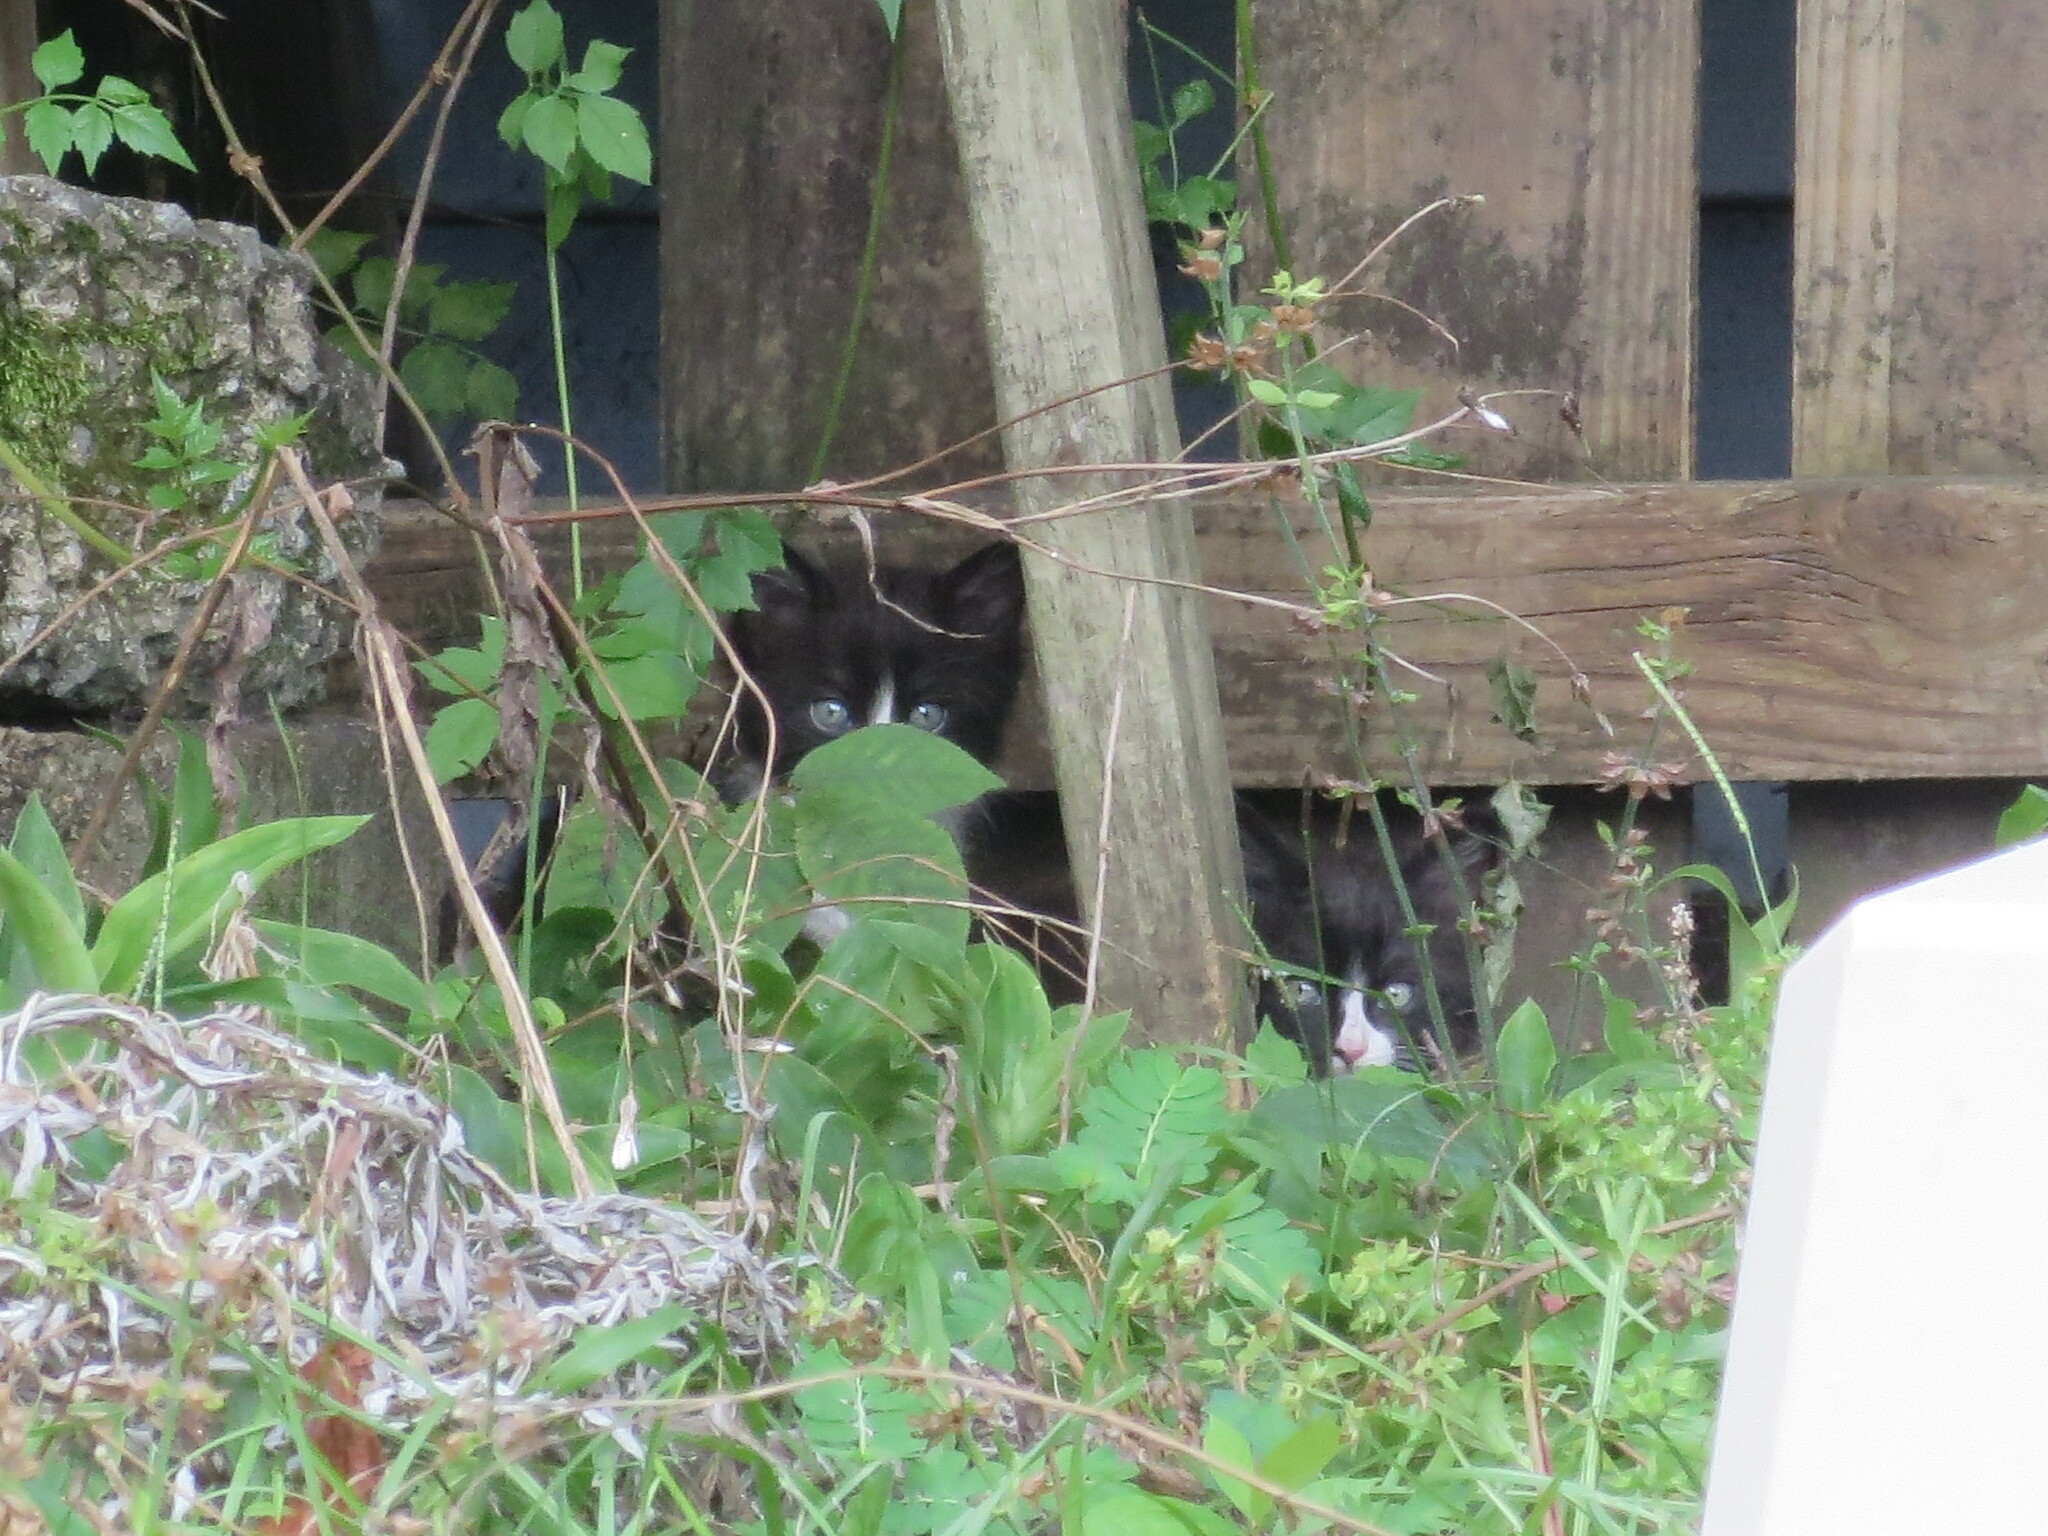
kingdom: Animalia
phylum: Chordata
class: Mammalia
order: Carnivora
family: Felidae
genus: Felis
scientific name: Felis catus
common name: Domestic cat
